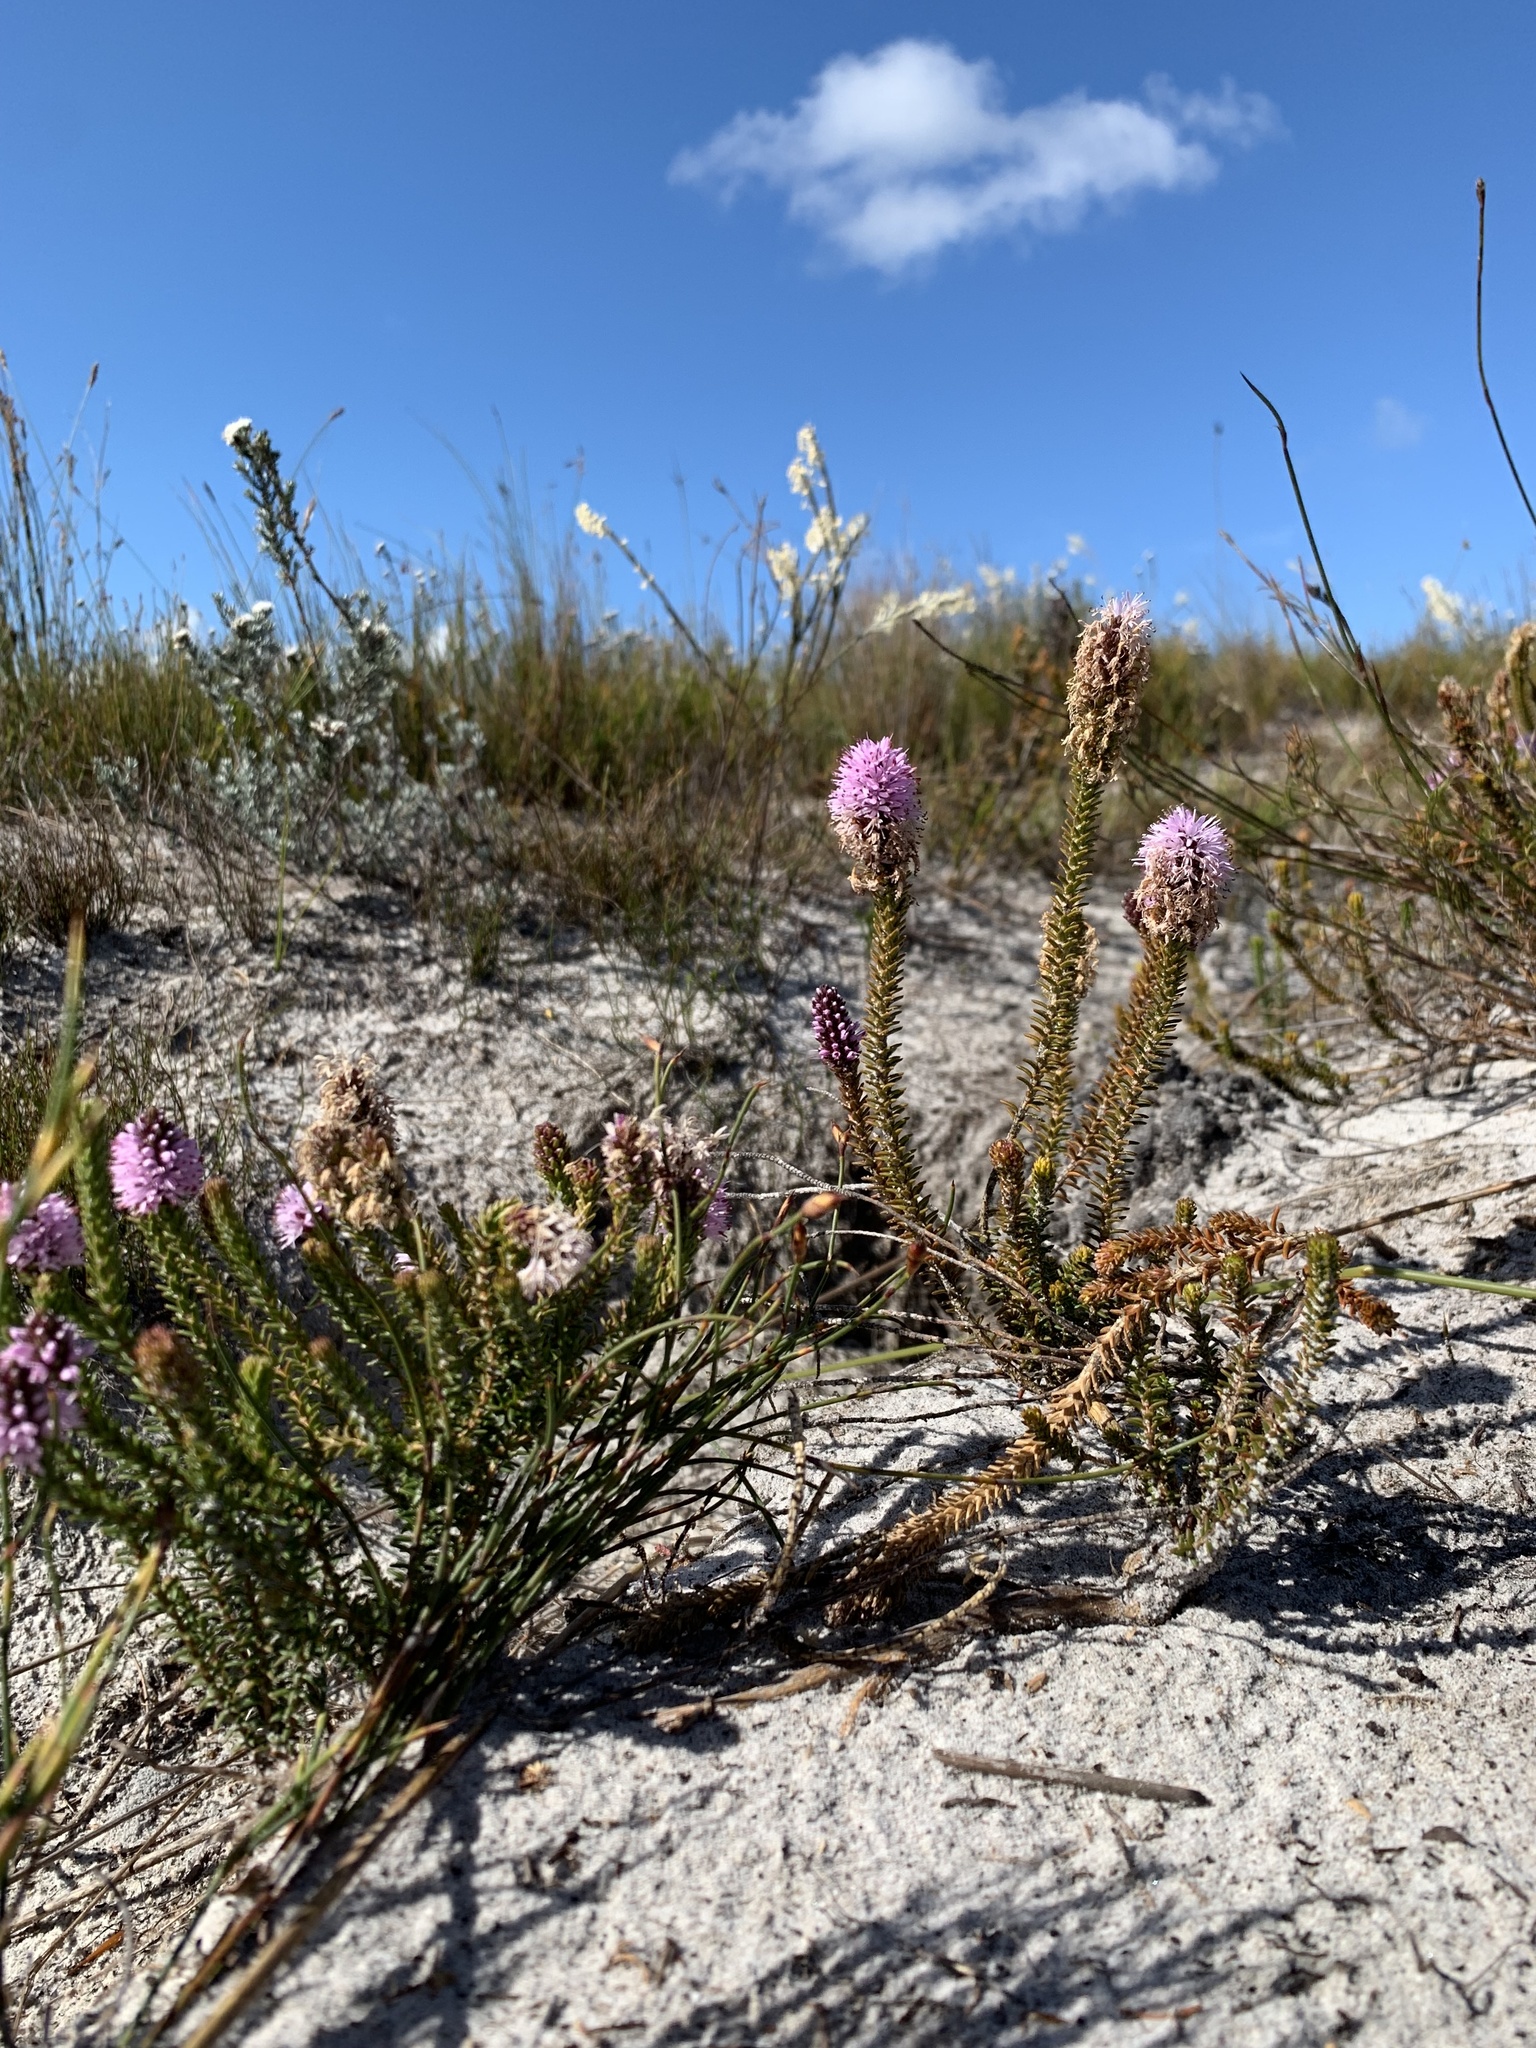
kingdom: Plantae
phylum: Tracheophyta
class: Magnoliopsida
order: Lamiales
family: Stilbaceae
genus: Stilbe
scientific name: Stilbe ericoides
